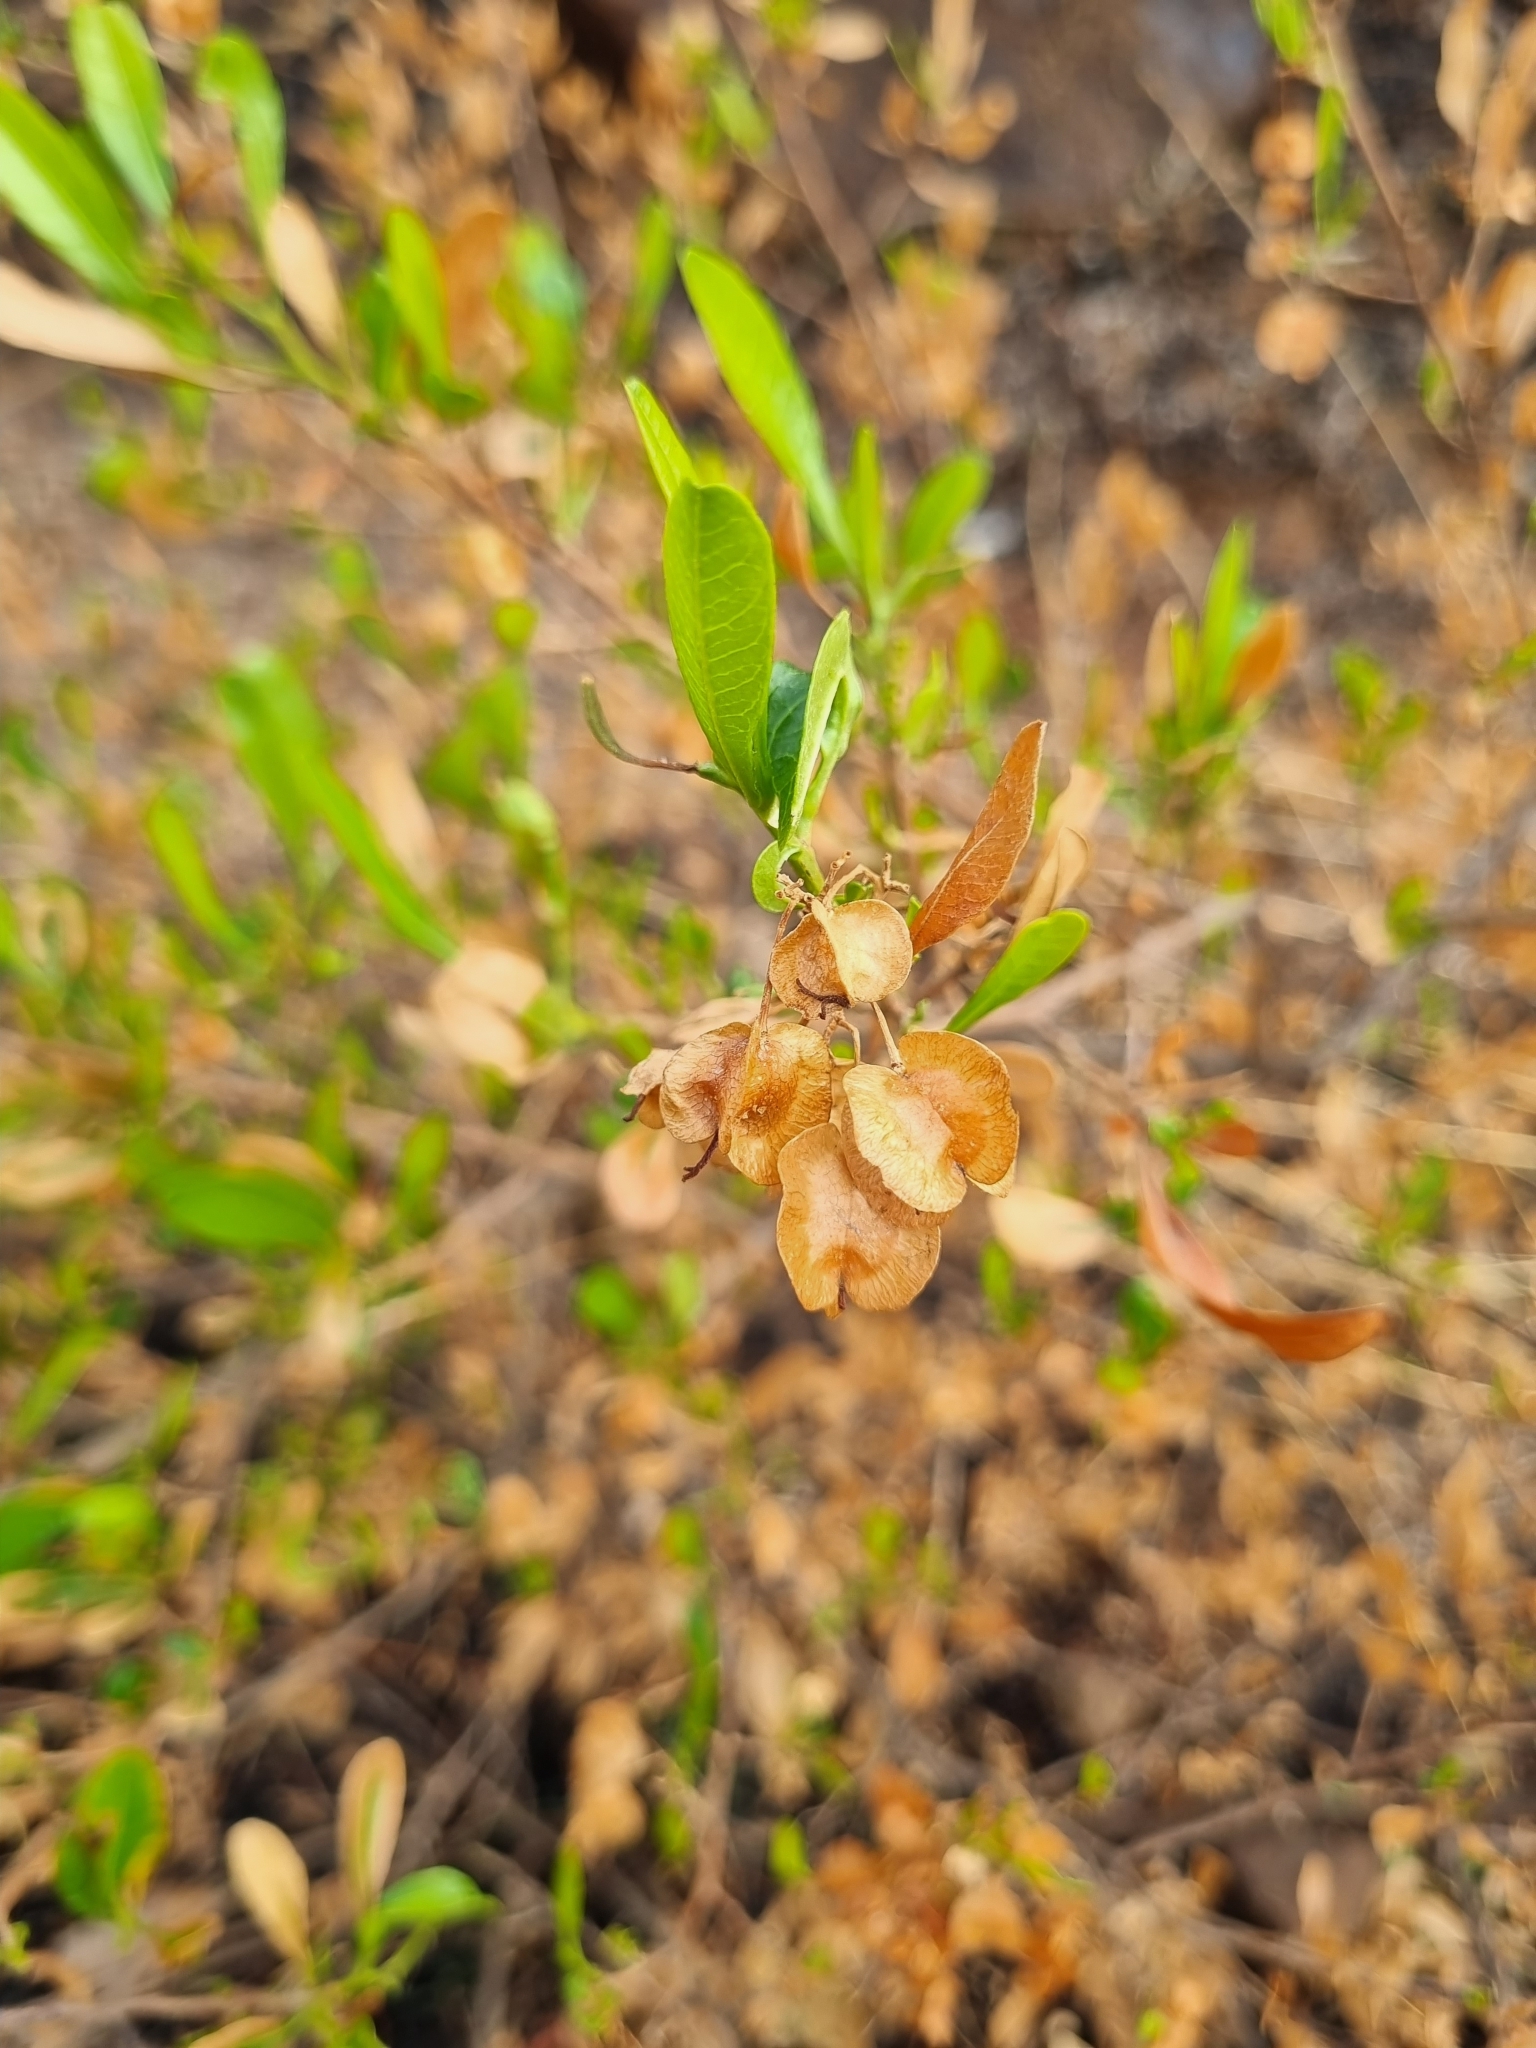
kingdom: Plantae
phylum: Tracheophyta
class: Magnoliopsida
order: Sapindales
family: Sapindaceae
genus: Dodonaea
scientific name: Dodonaea viscosa
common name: Hopbush
